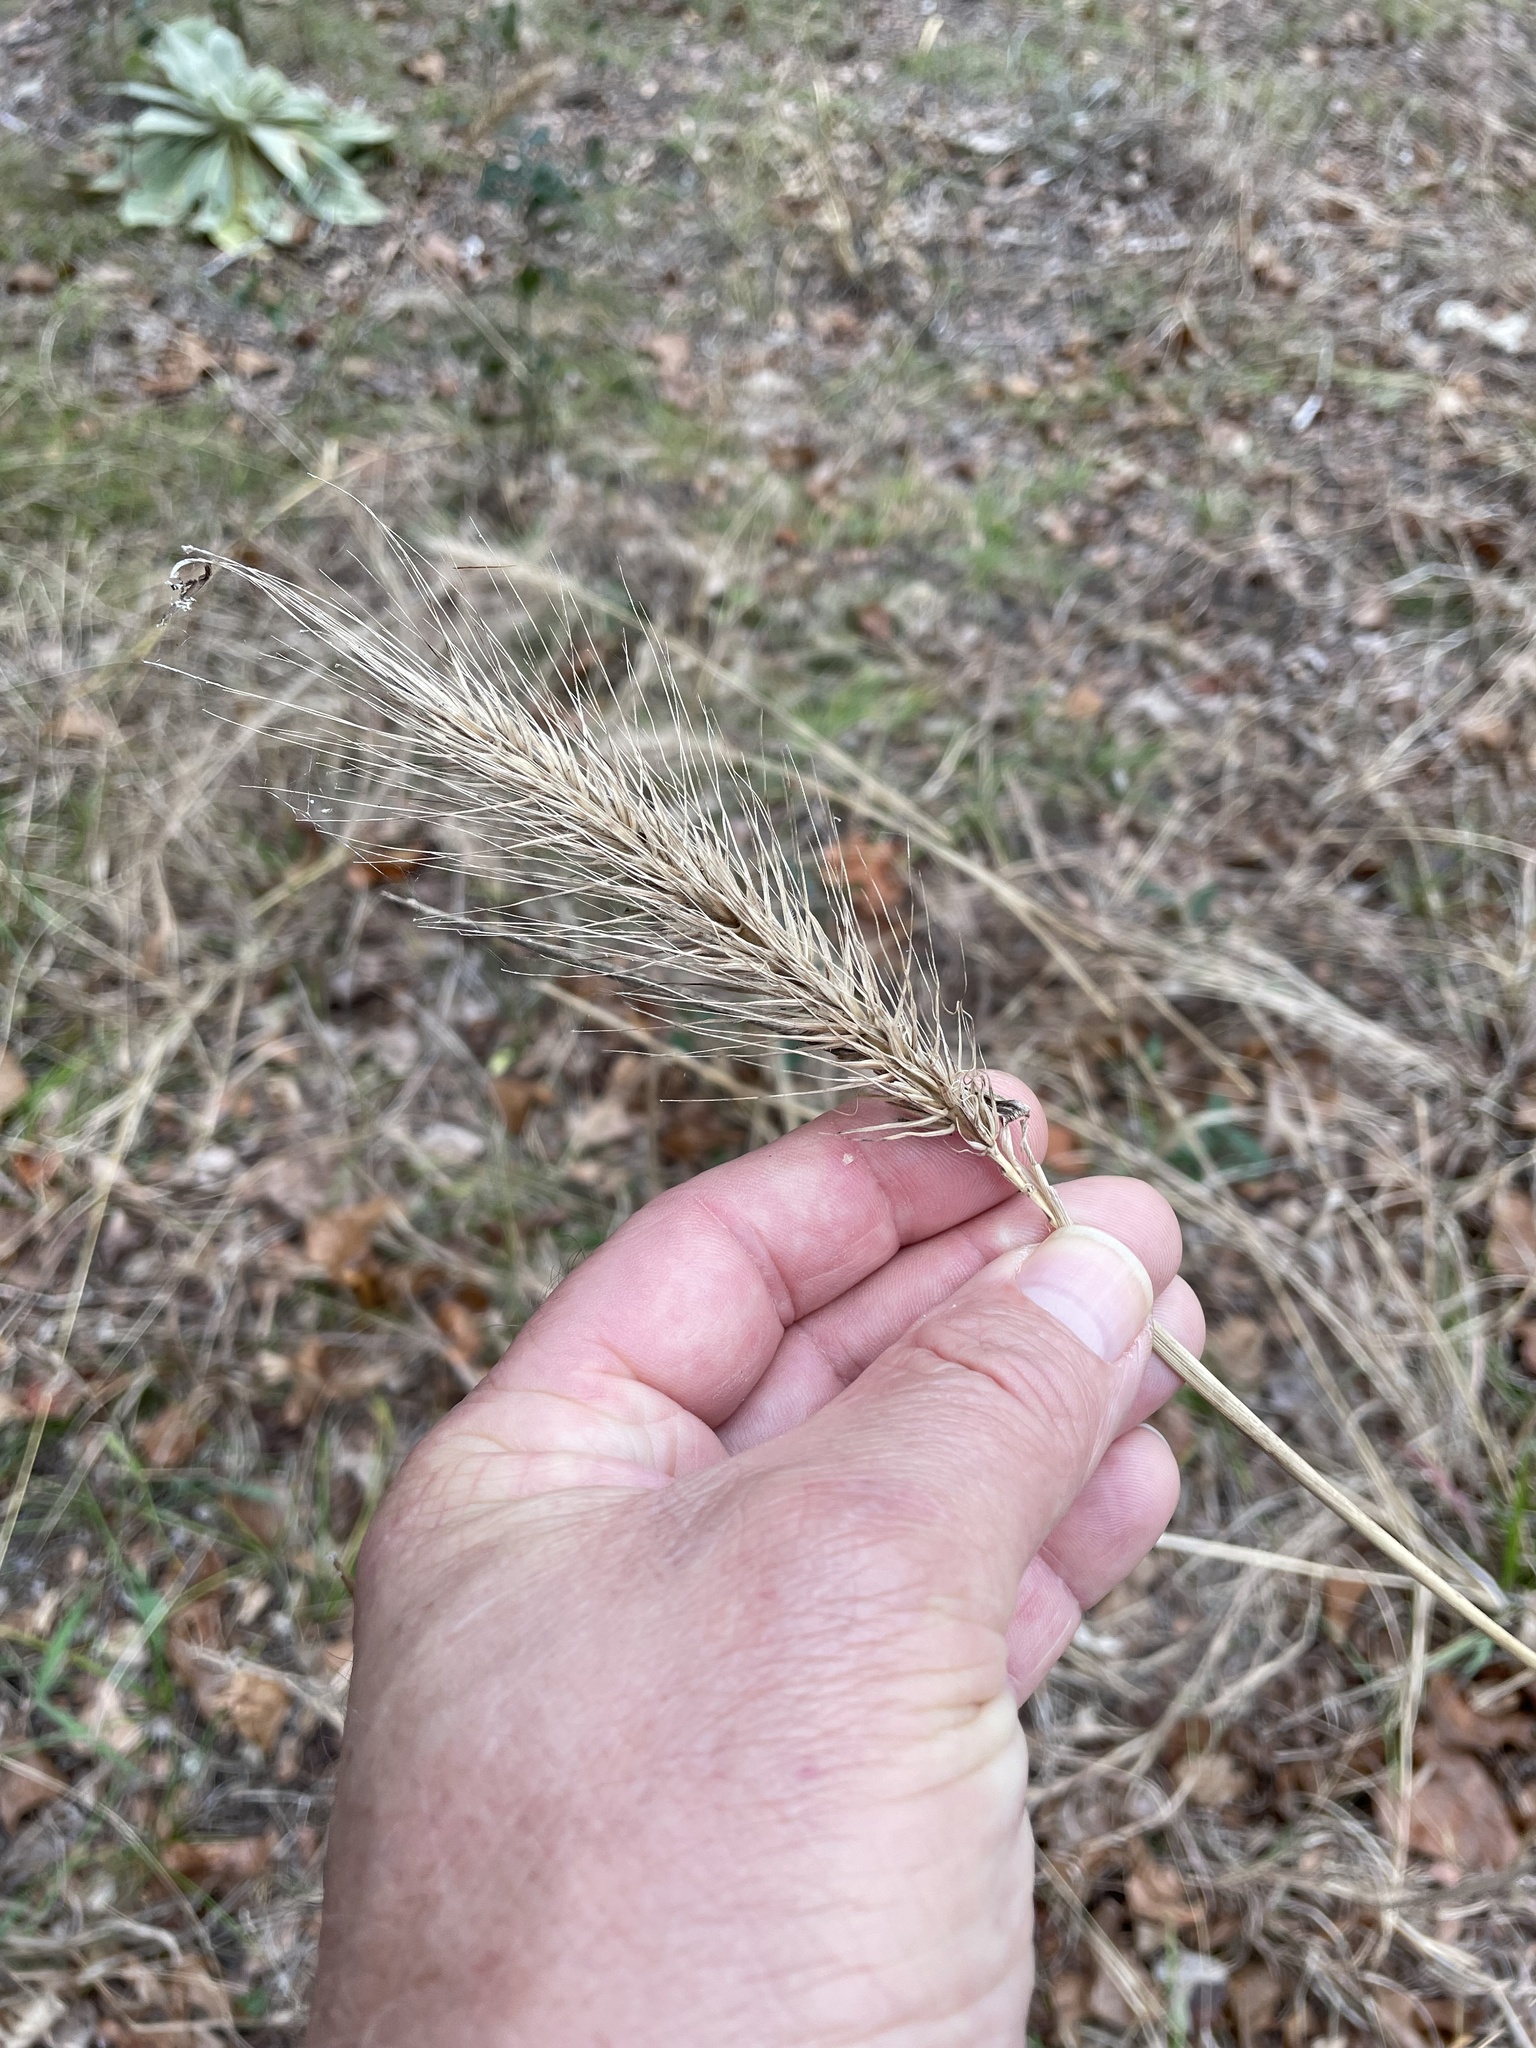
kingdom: Plantae
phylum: Tracheophyta
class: Liliopsida
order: Poales
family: Poaceae
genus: Elymus
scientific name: Elymus virginicus
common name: Common eastern wildrye
